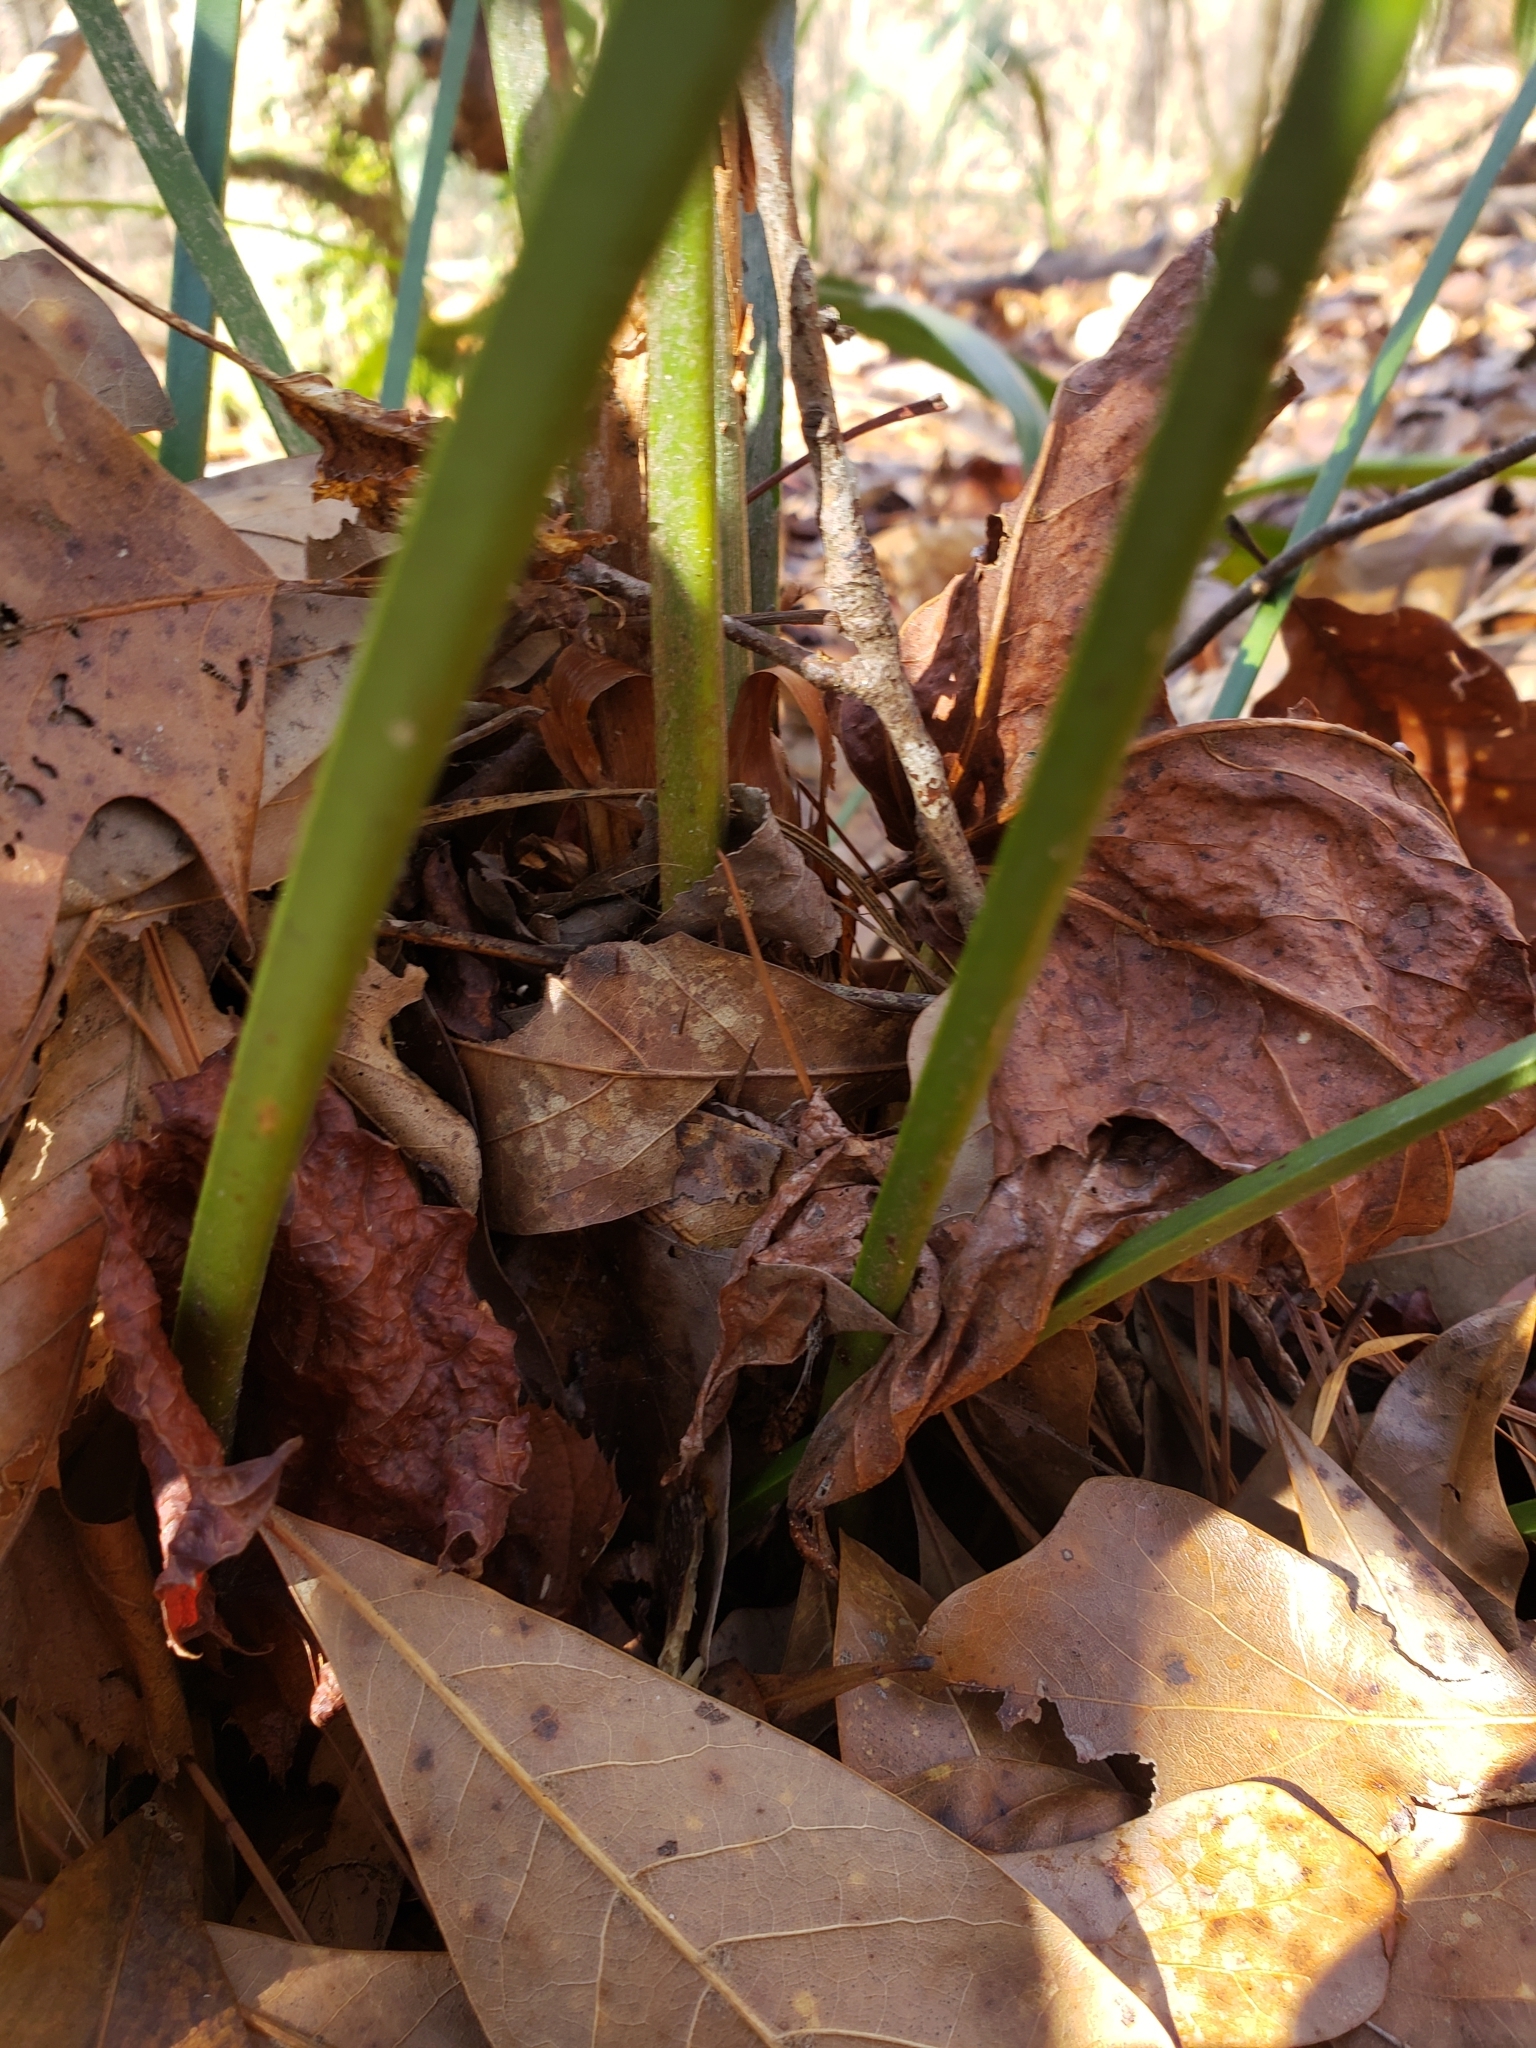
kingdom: Plantae
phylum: Tracheophyta
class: Liliopsida
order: Arecales
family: Arecaceae
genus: Rhapidophyllum
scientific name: Rhapidophyllum hystrix
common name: Porcupine palm
